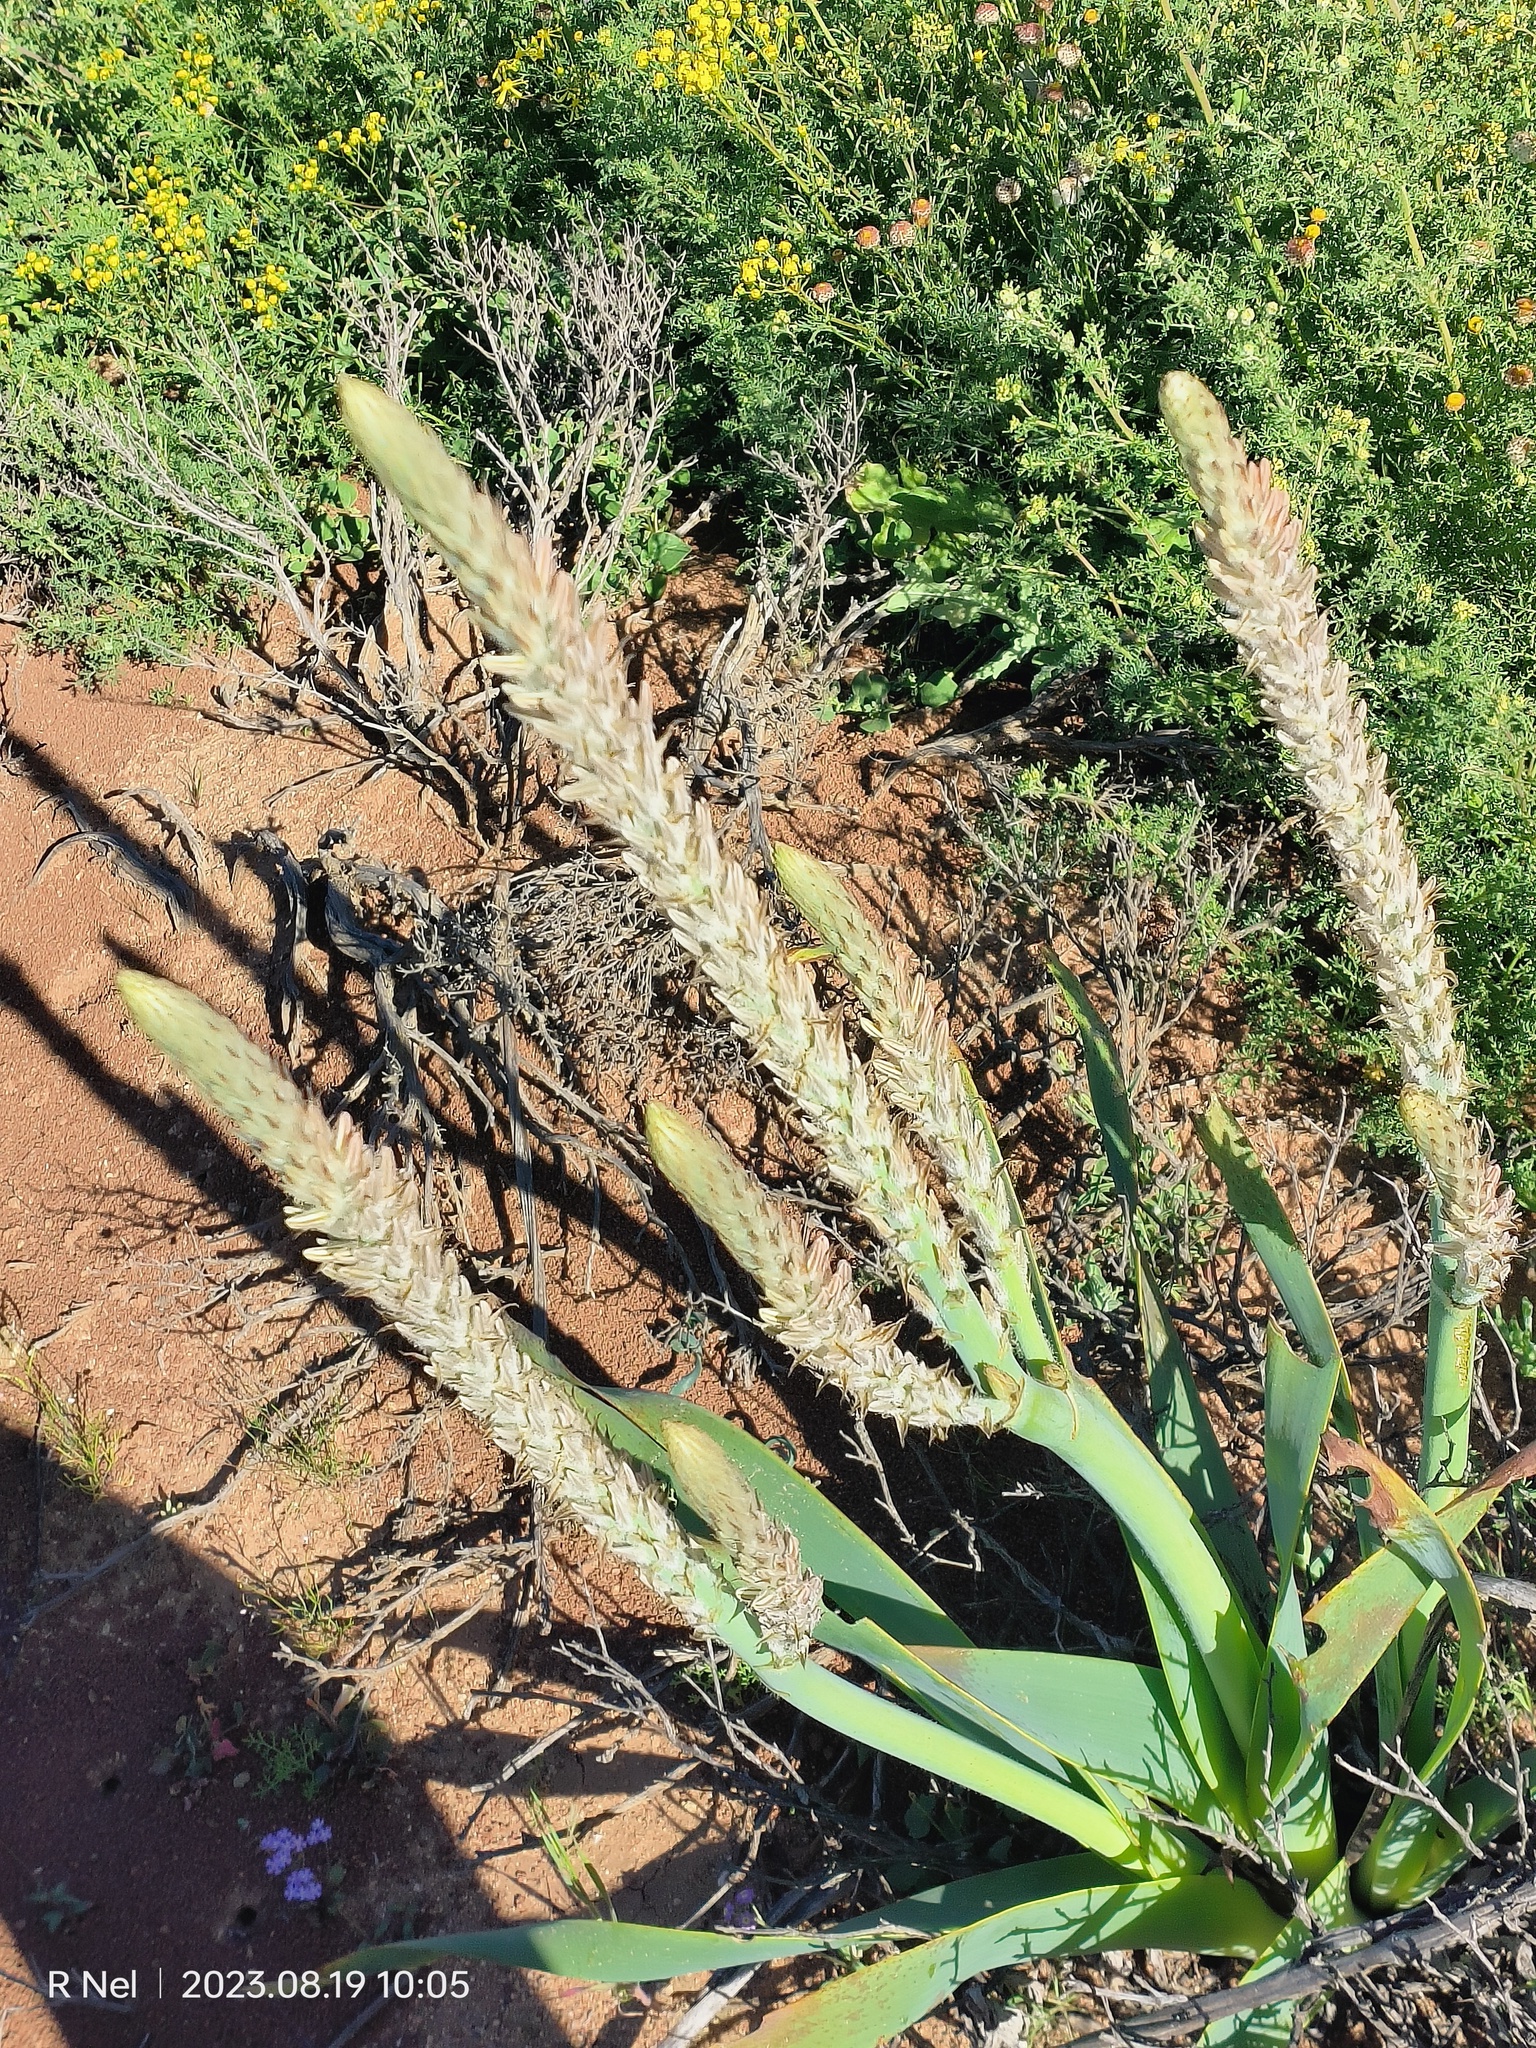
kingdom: Plantae
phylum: Tracheophyta
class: Liliopsida
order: Asparagales
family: Asphodelaceae
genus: Trachyandra
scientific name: Trachyandra falcata
